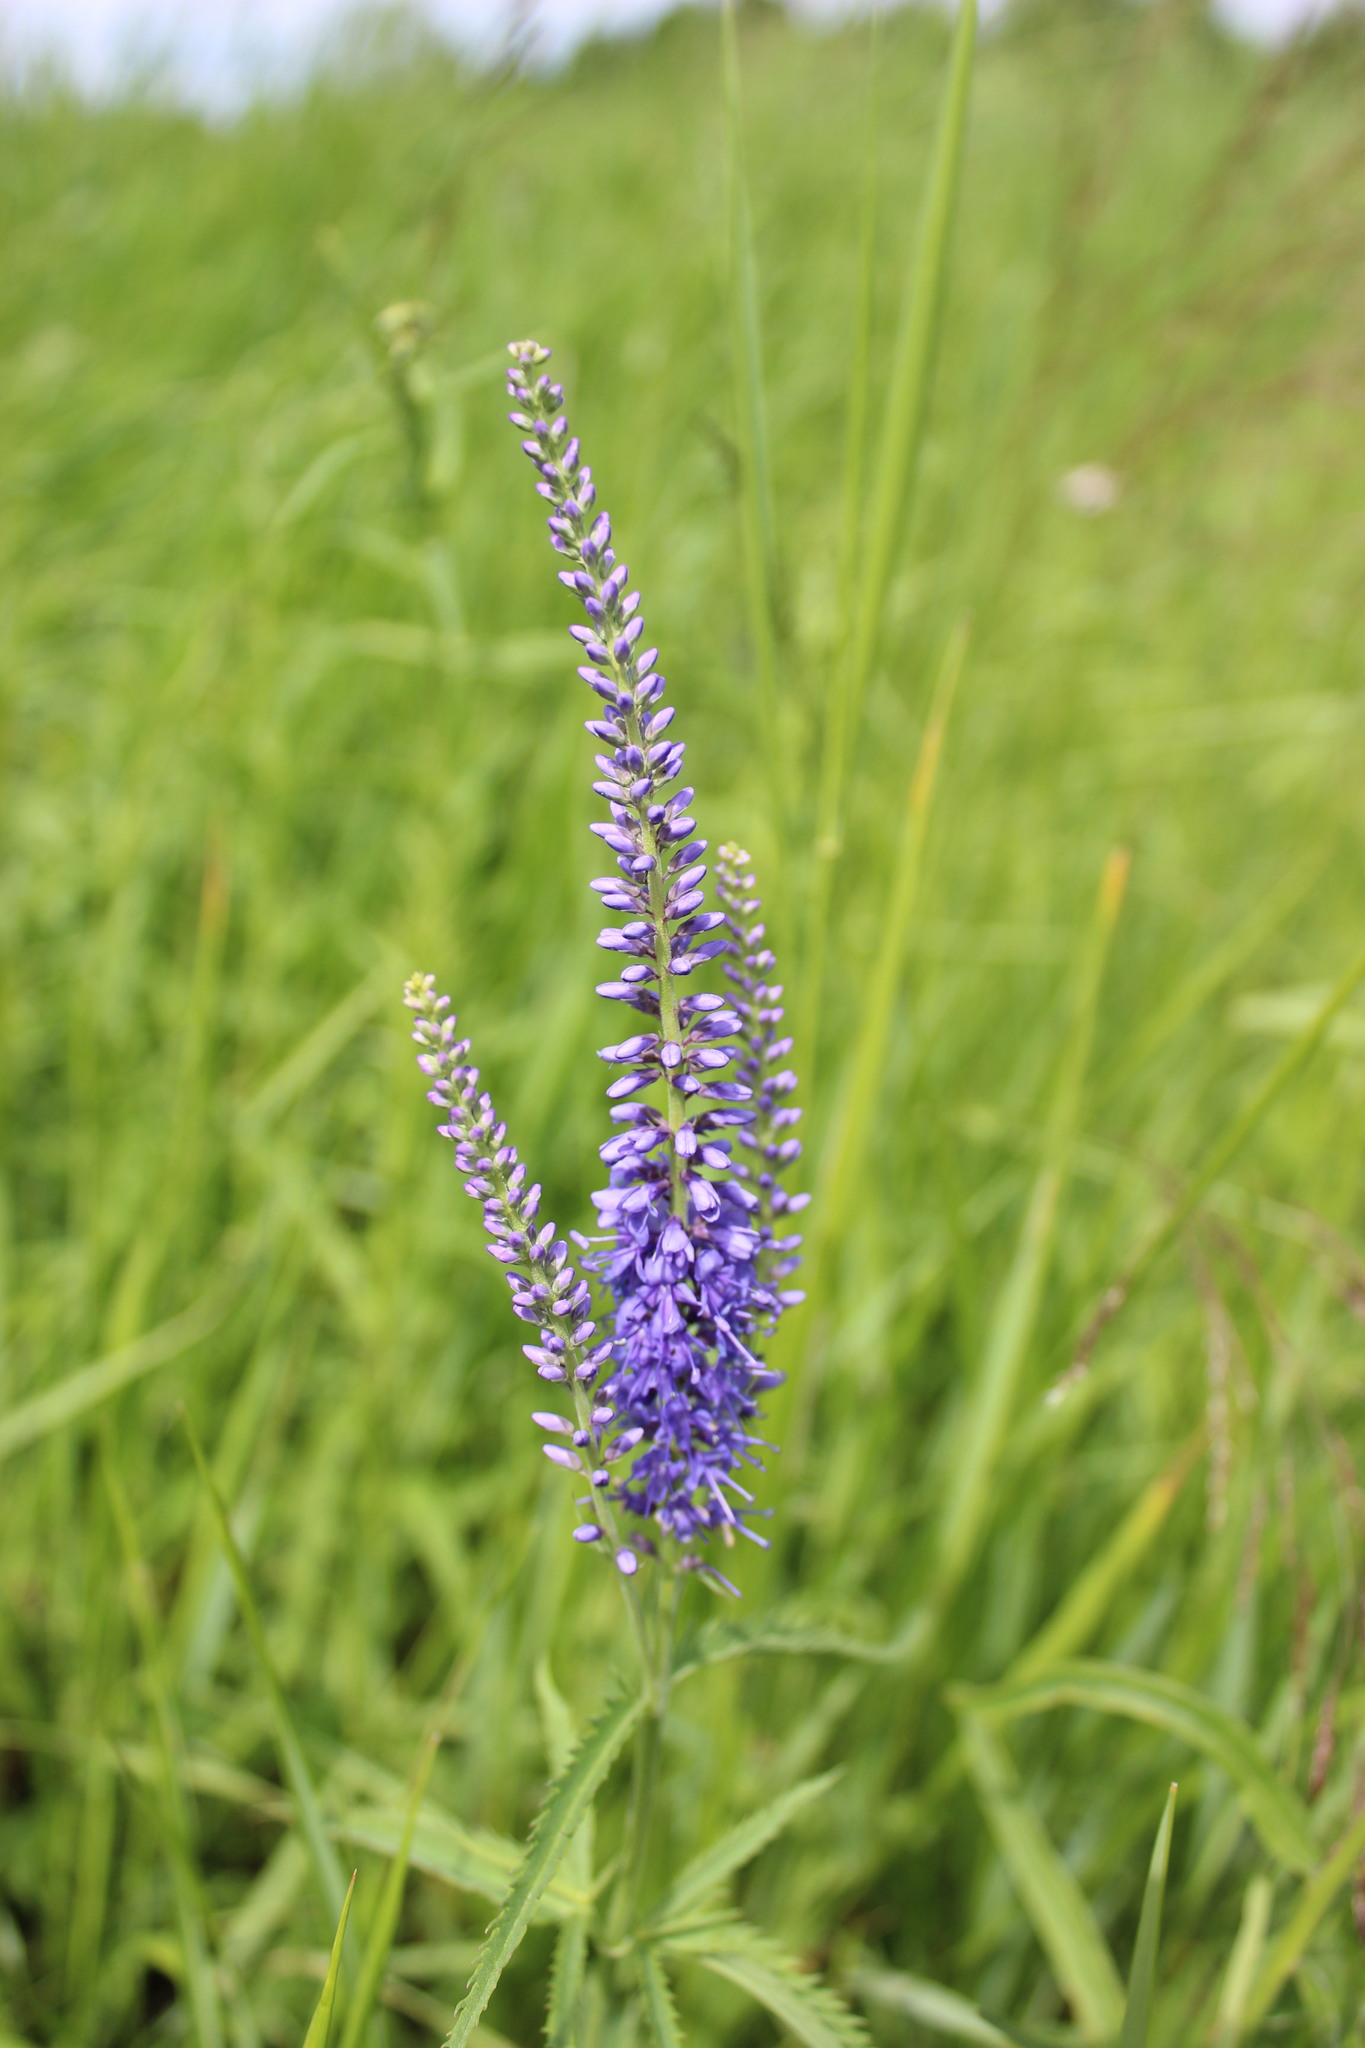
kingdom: Plantae
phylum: Tracheophyta
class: Magnoliopsida
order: Lamiales
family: Plantaginaceae
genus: Veronica
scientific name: Veronica longifolia
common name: Garden speedwell
